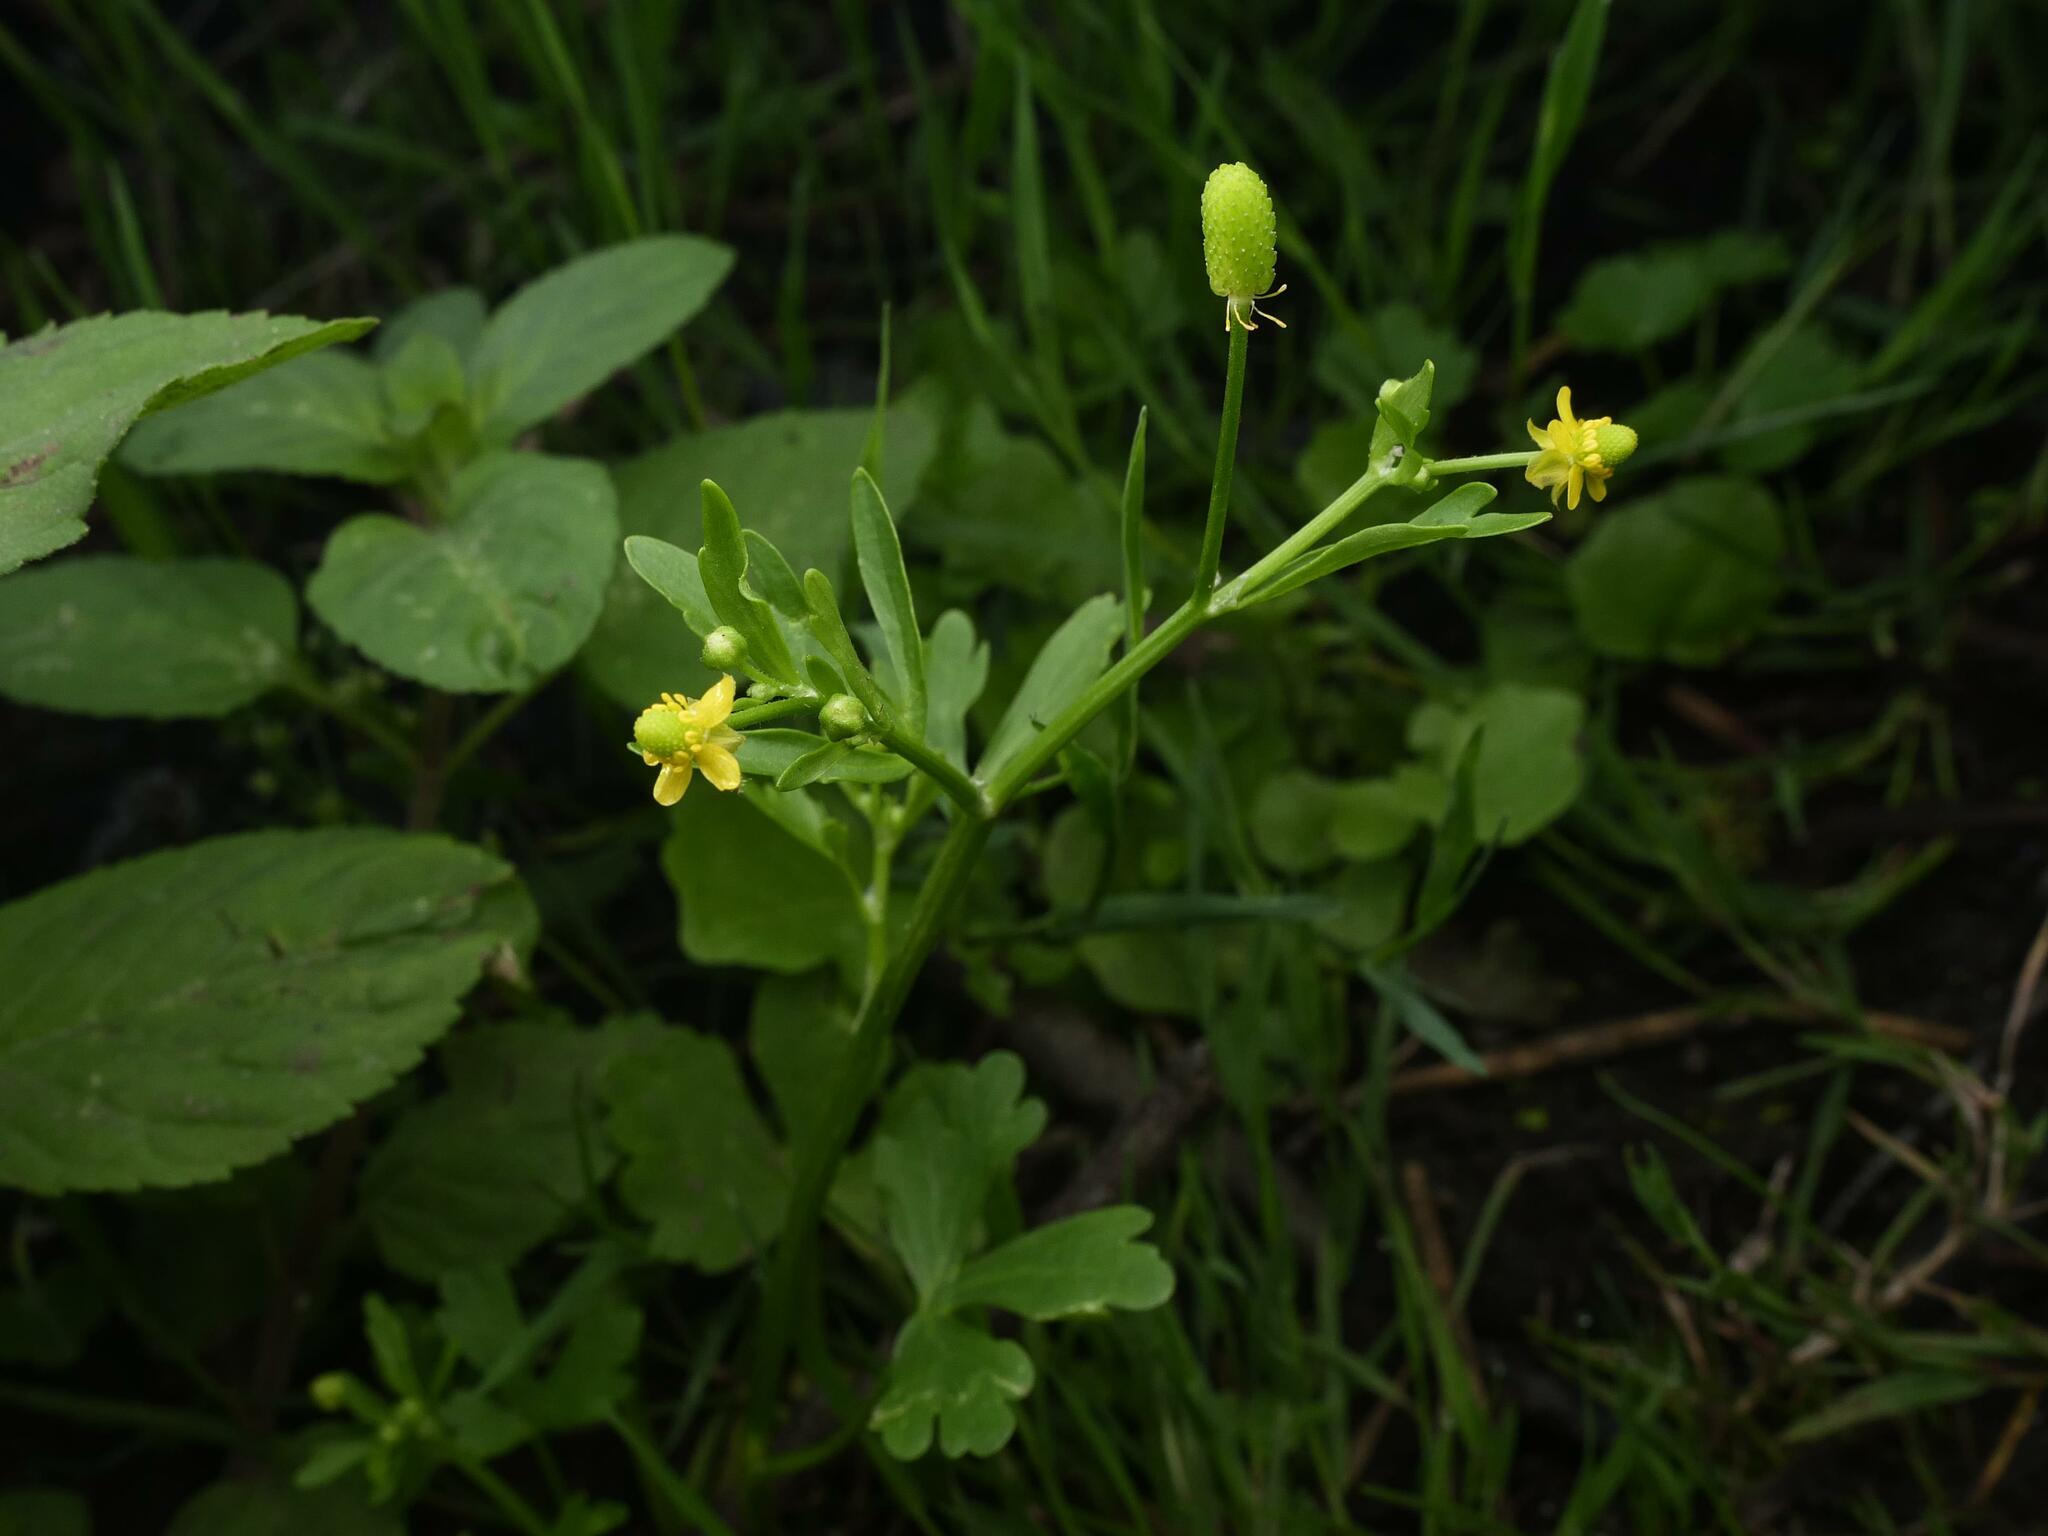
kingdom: Plantae
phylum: Tracheophyta
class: Magnoliopsida
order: Ranunculales
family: Ranunculaceae
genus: Ranunculus
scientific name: Ranunculus sceleratus
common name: Celery-leaved buttercup
